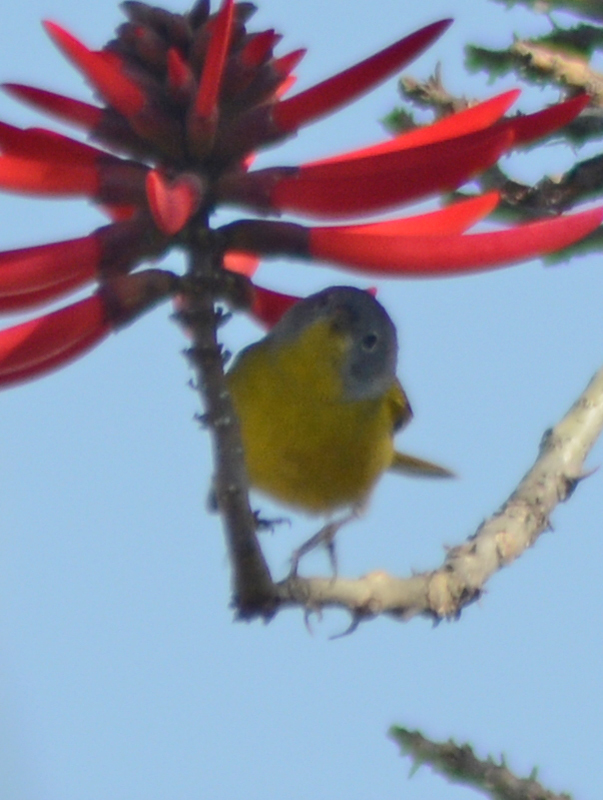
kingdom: Animalia
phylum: Chordata
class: Aves
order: Passeriformes
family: Parulidae
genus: Leiothlypis
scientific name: Leiothlypis ruficapilla
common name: Nashville warbler
